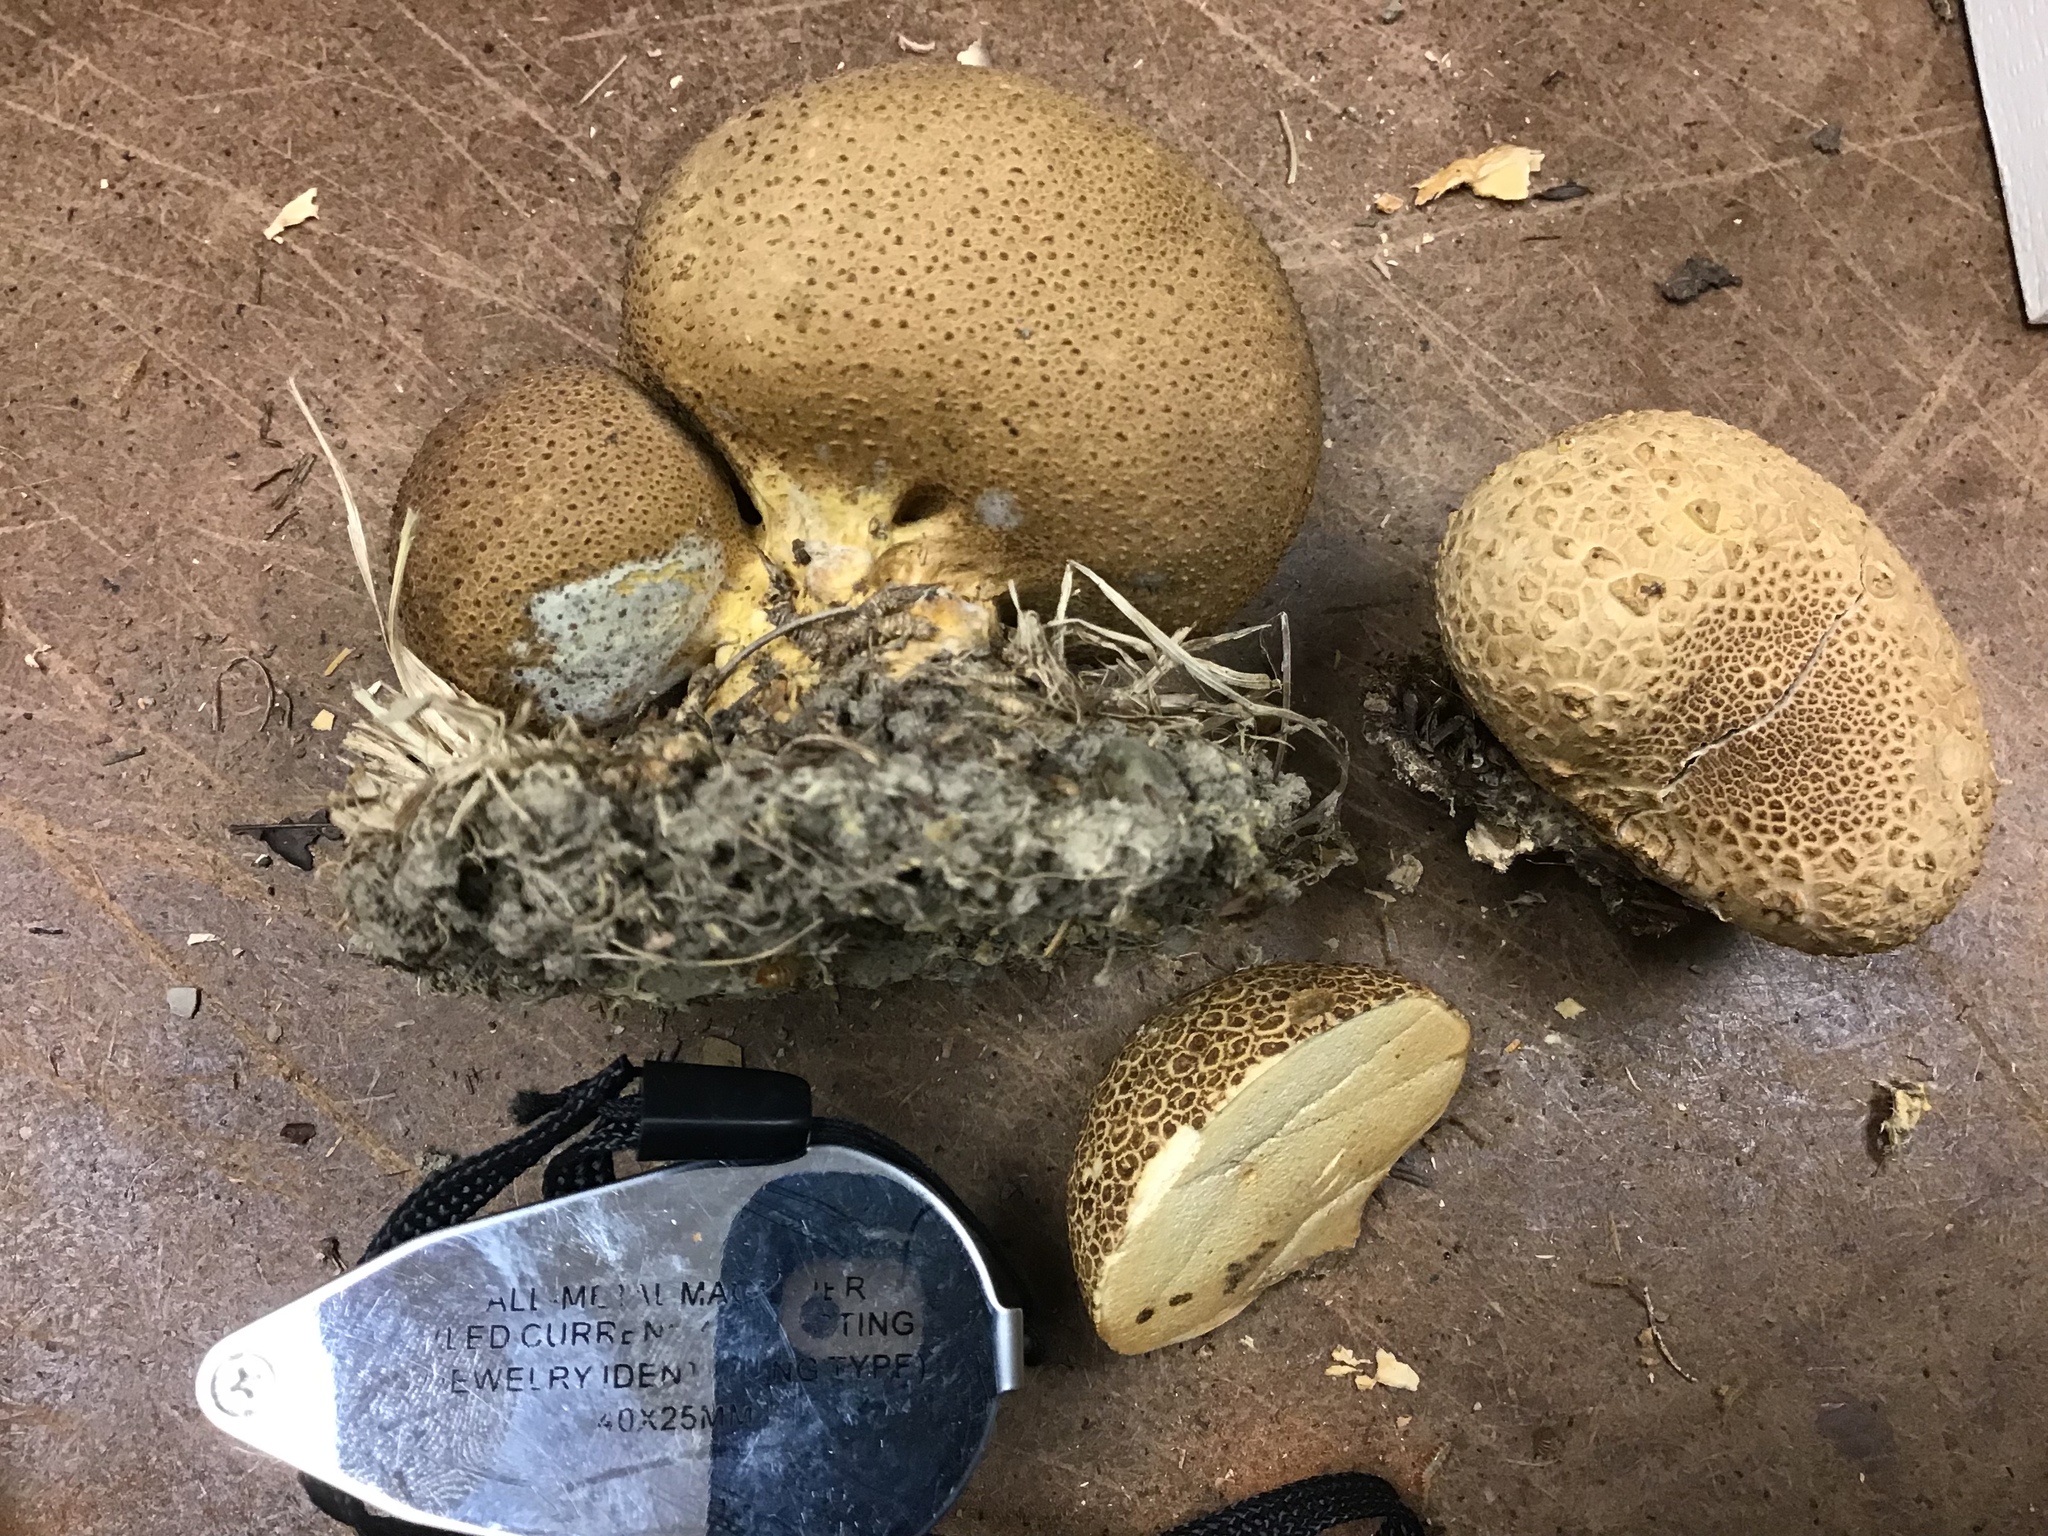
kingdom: Fungi
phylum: Basidiomycota
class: Agaricomycetes
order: Boletales
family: Sclerodermataceae
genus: Scleroderma
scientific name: Scleroderma citrinum
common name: Common earthball
